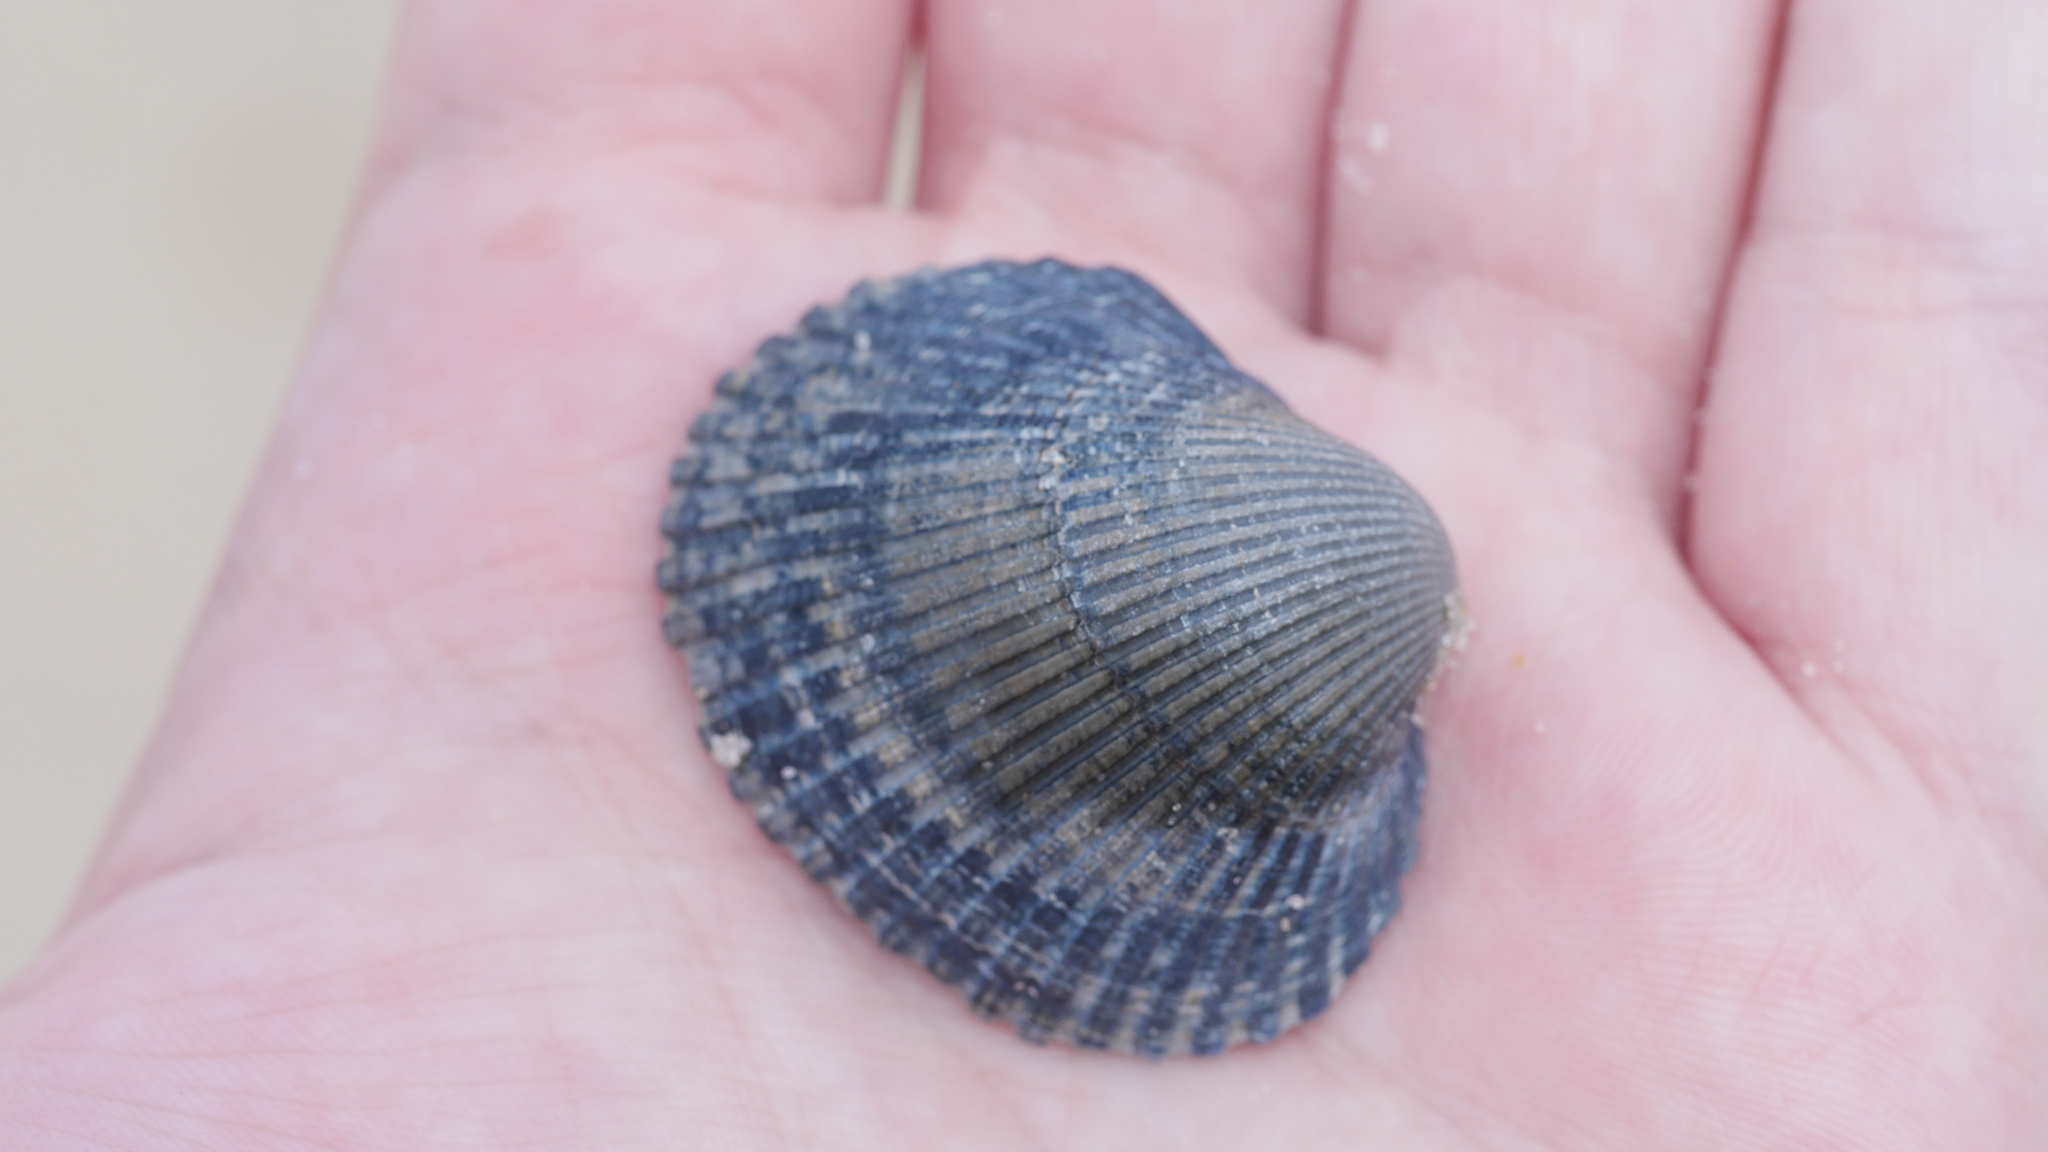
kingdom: Animalia
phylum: Mollusca
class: Bivalvia
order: Arcida
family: Arcidae
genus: Lunarca
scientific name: Lunarca ovalis
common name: Blood ark
